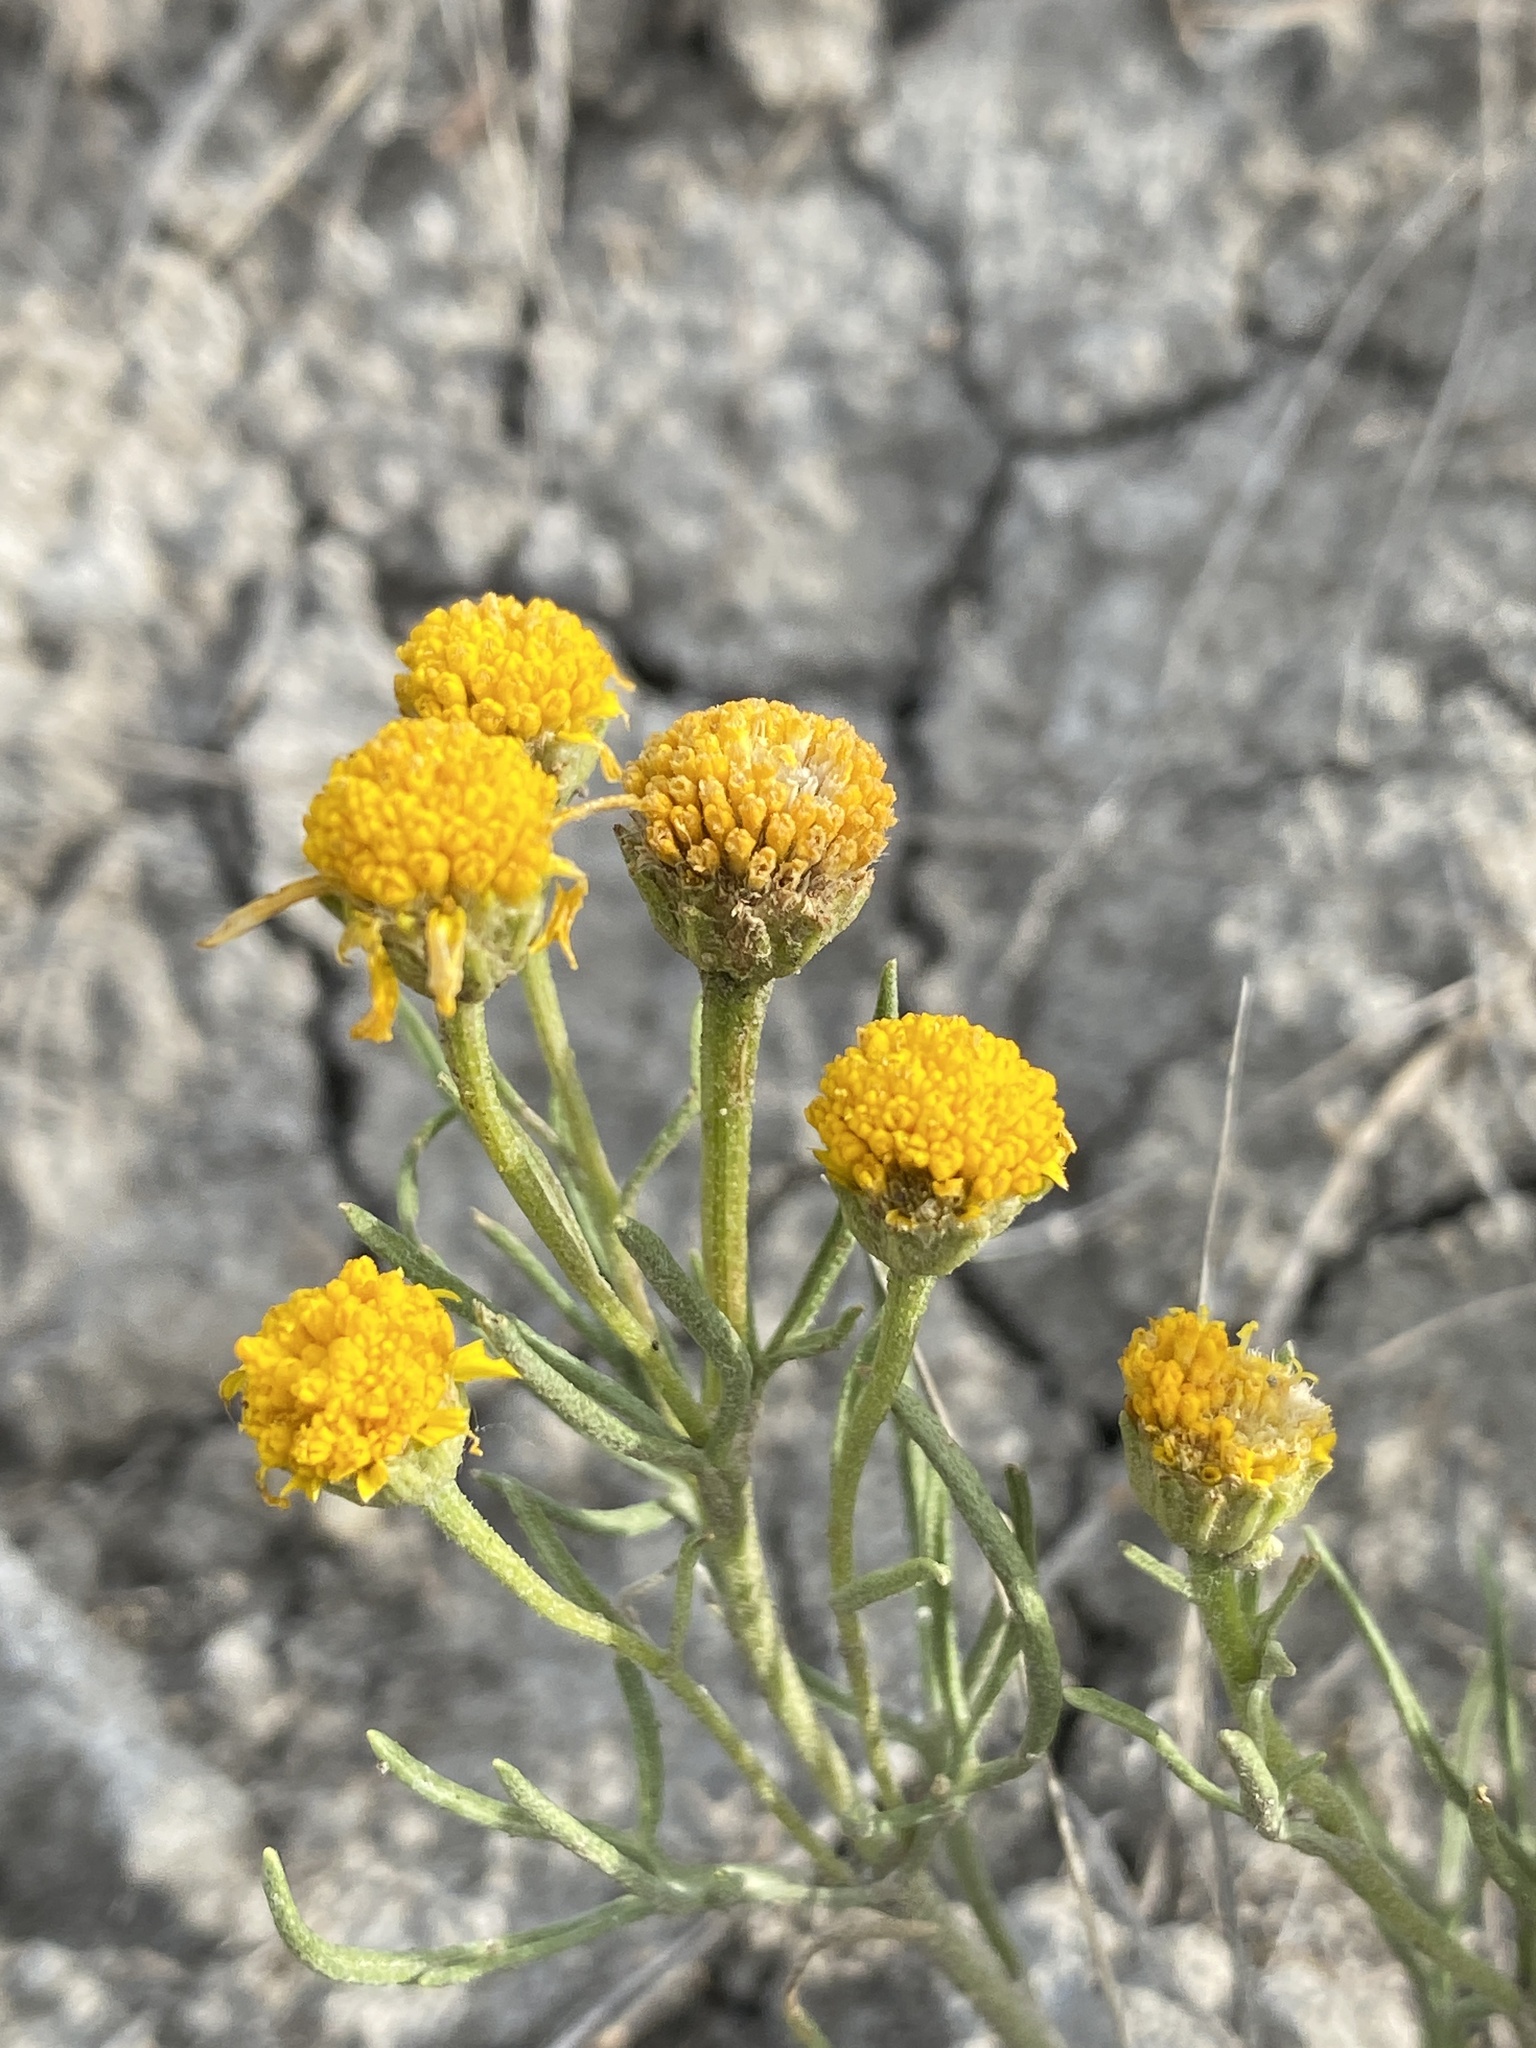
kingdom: Plantae
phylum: Tracheophyta
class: Magnoliopsida
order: Asterales
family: Asteraceae
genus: Hymenoxys
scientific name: Hymenoxys richardsonii
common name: Pingue rubberweed
